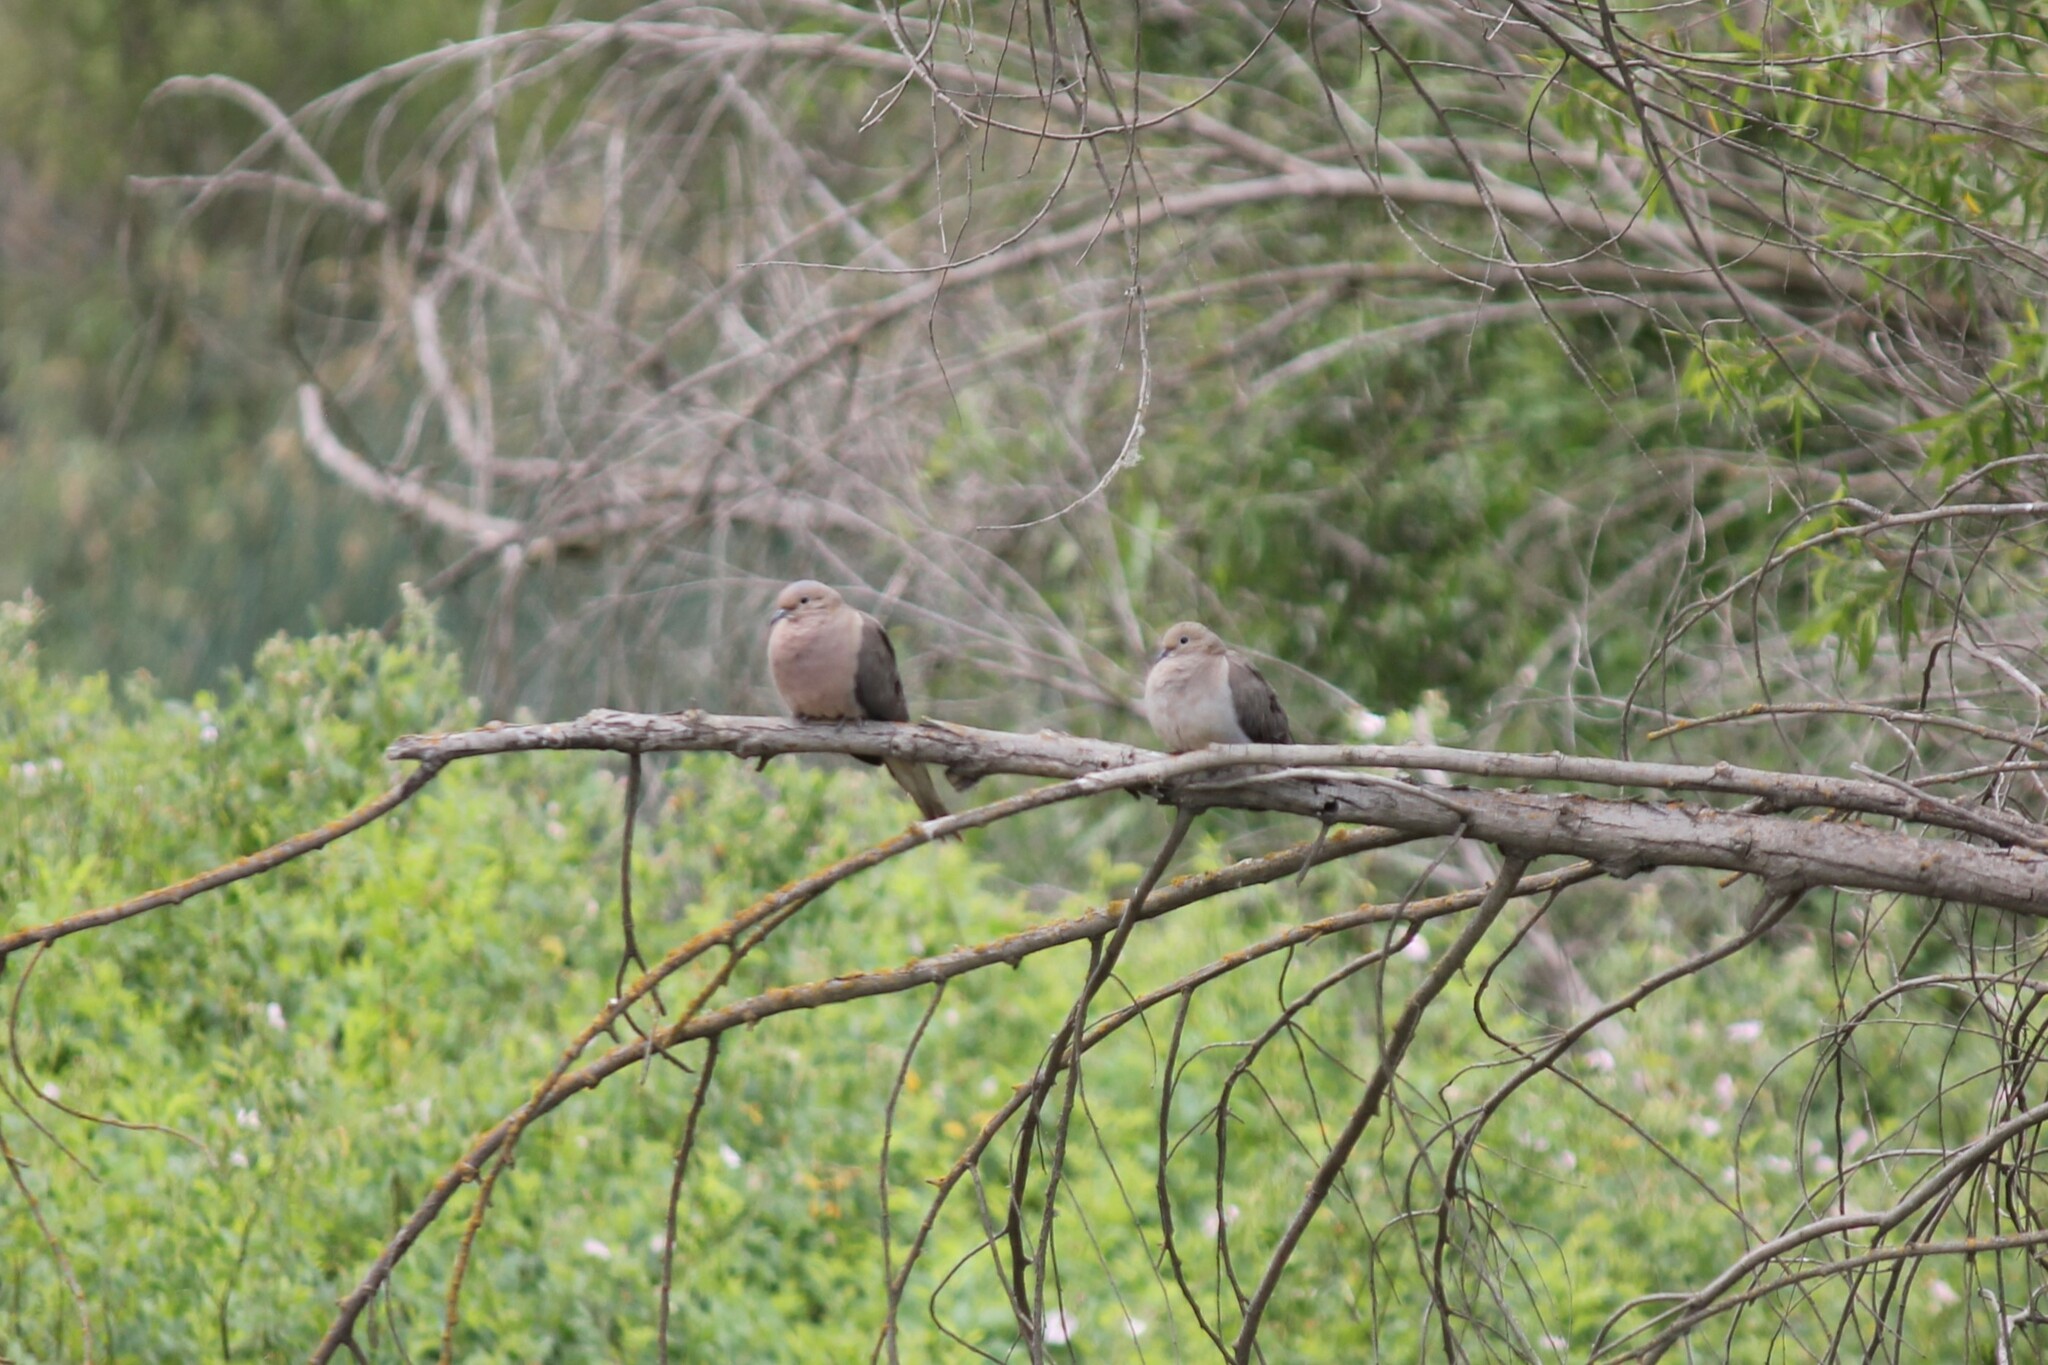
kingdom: Animalia
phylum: Chordata
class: Aves
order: Columbiformes
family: Columbidae
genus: Zenaida
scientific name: Zenaida macroura
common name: Mourning dove
